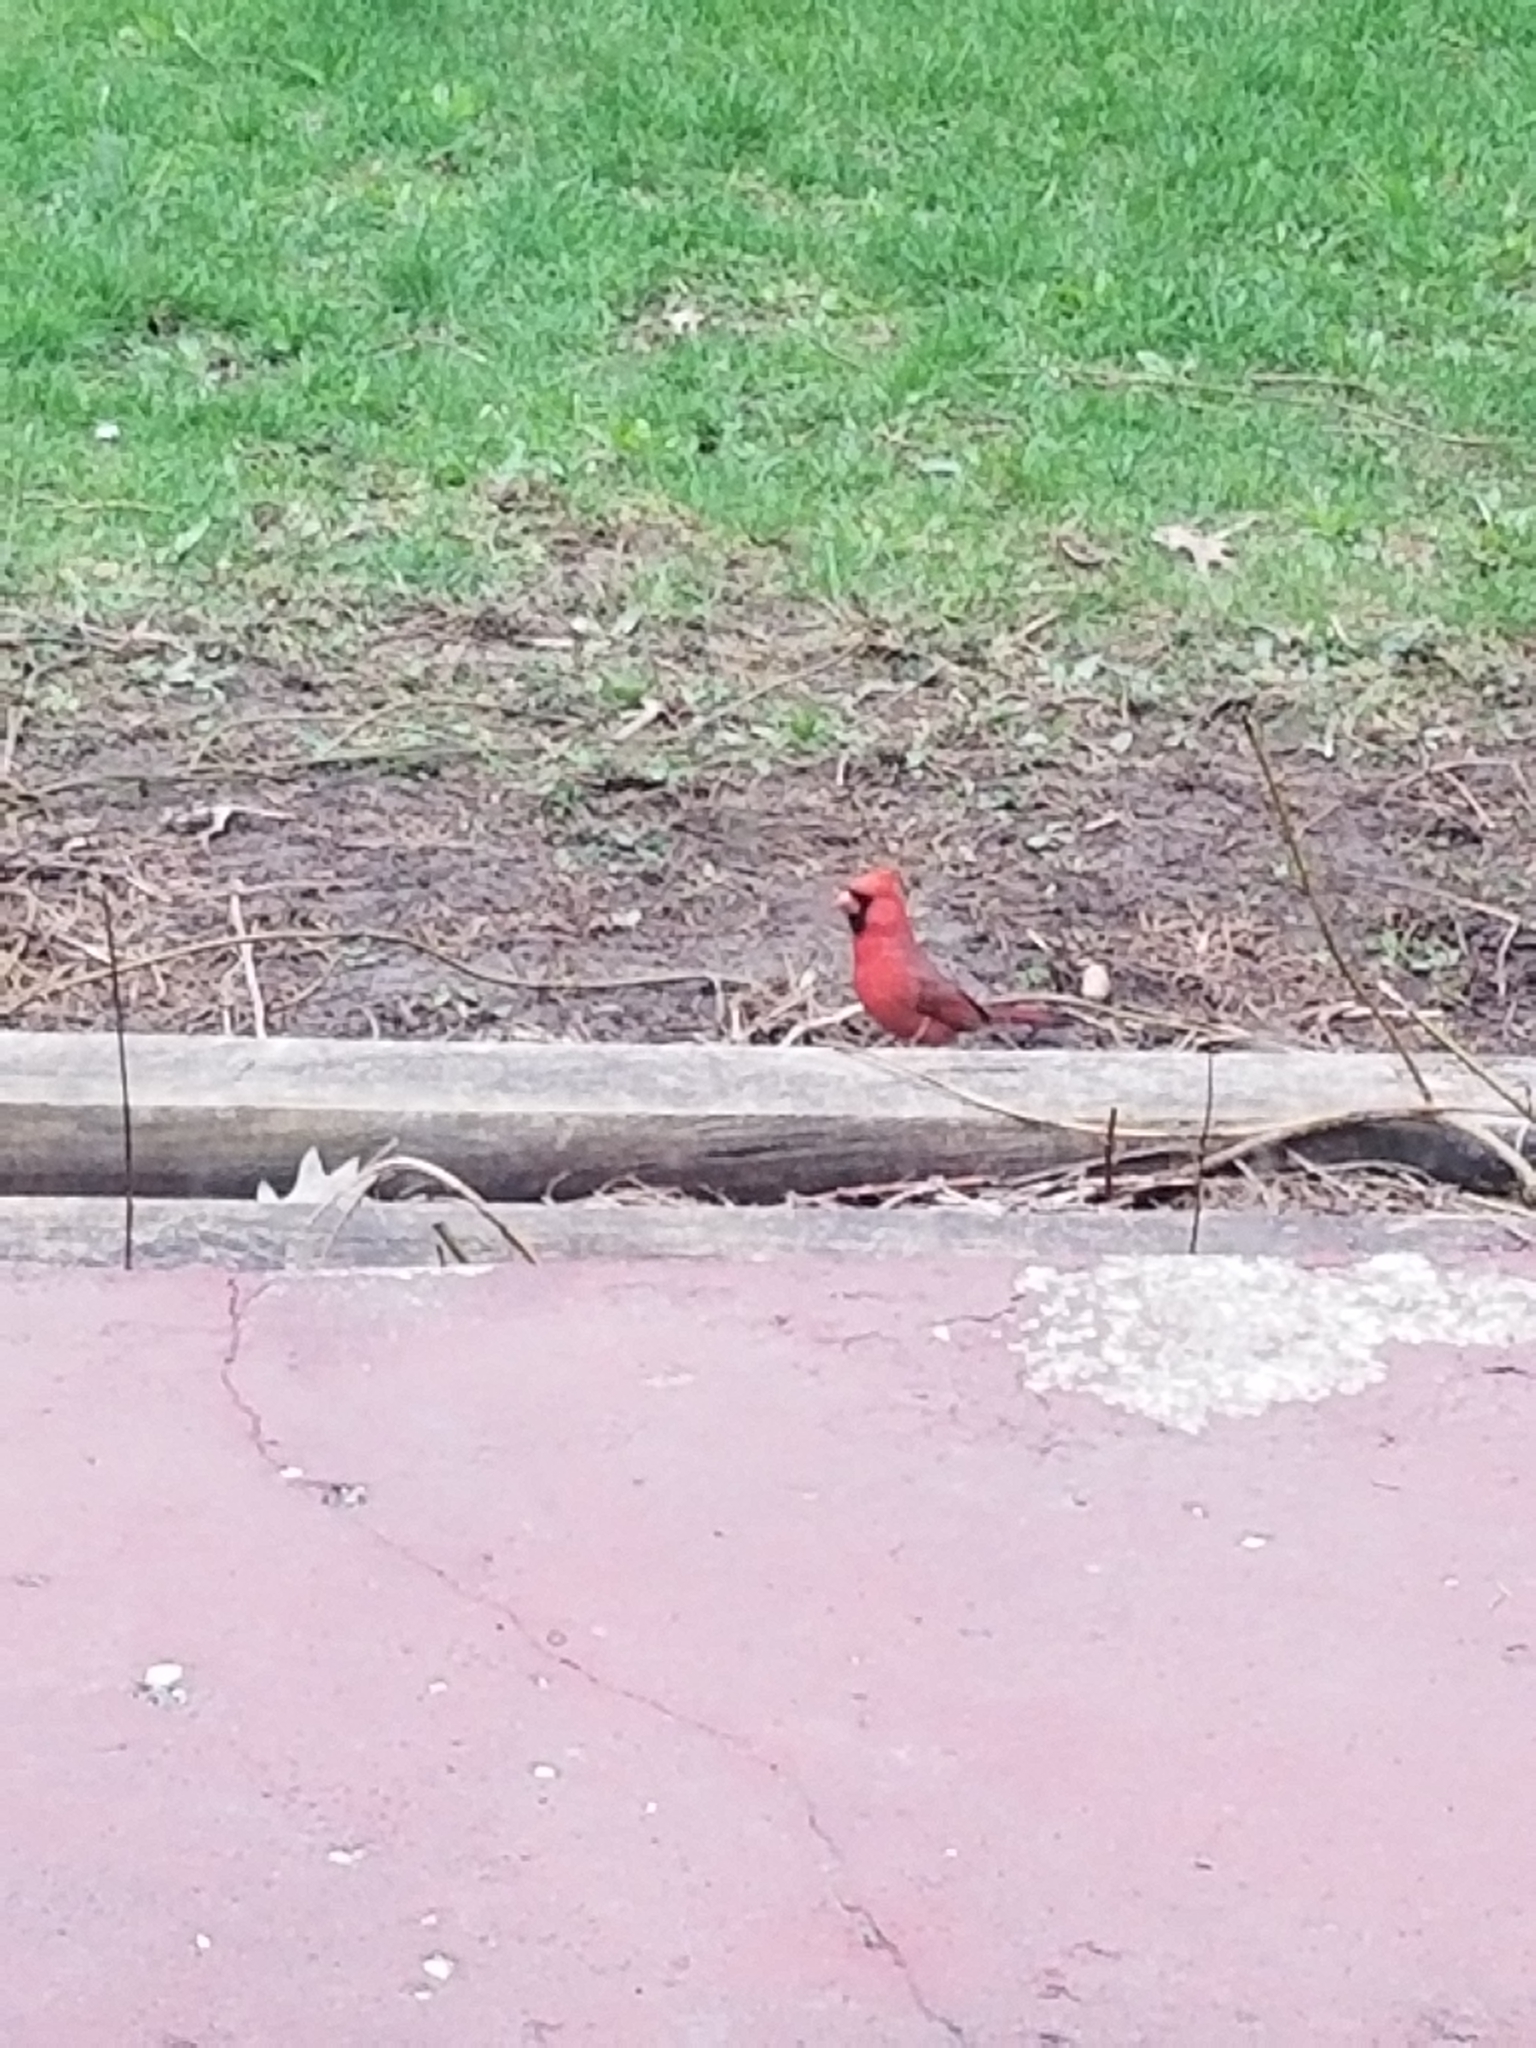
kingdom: Animalia
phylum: Chordata
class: Aves
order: Passeriformes
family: Cardinalidae
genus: Cardinalis
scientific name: Cardinalis cardinalis
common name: Northern cardinal
